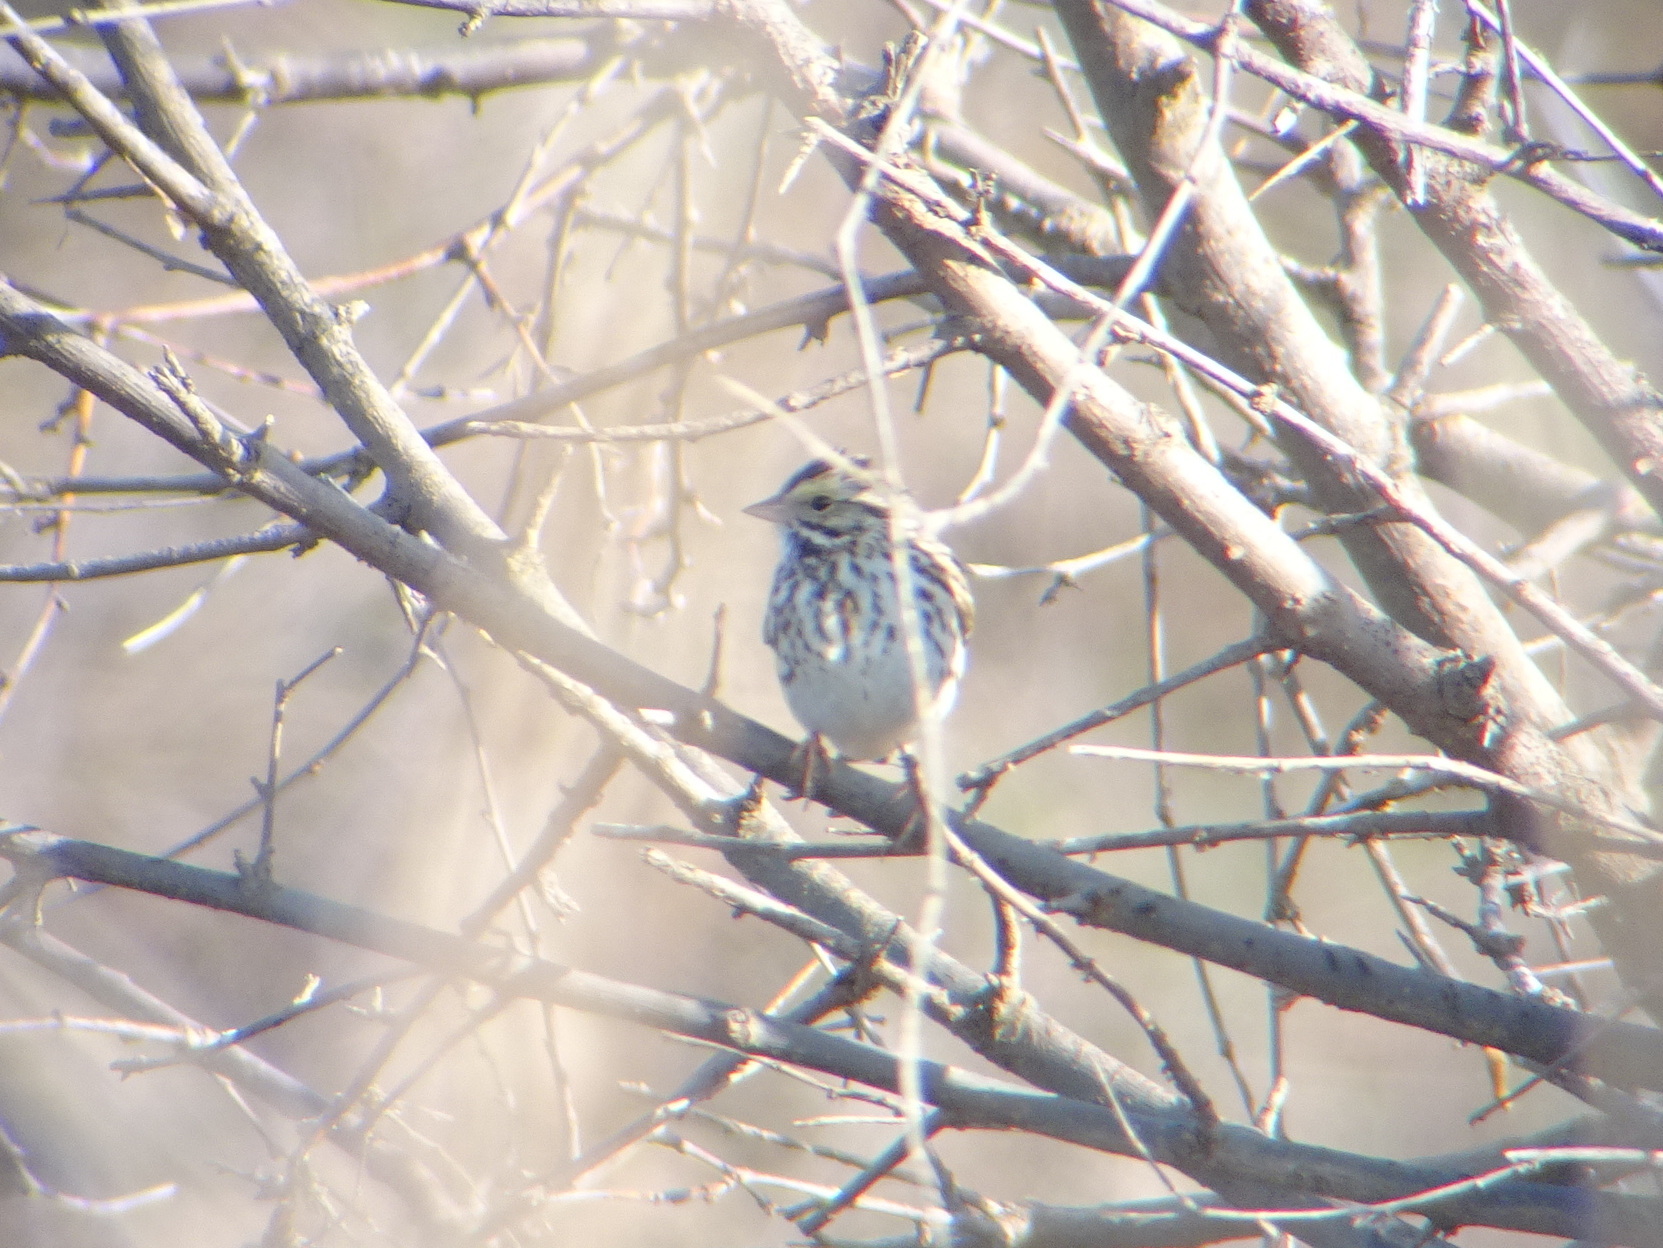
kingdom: Animalia
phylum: Chordata
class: Aves
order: Passeriformes
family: Passerellidae
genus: Passerculus
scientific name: Passerculus sandwichensis
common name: Savannah sparrow
